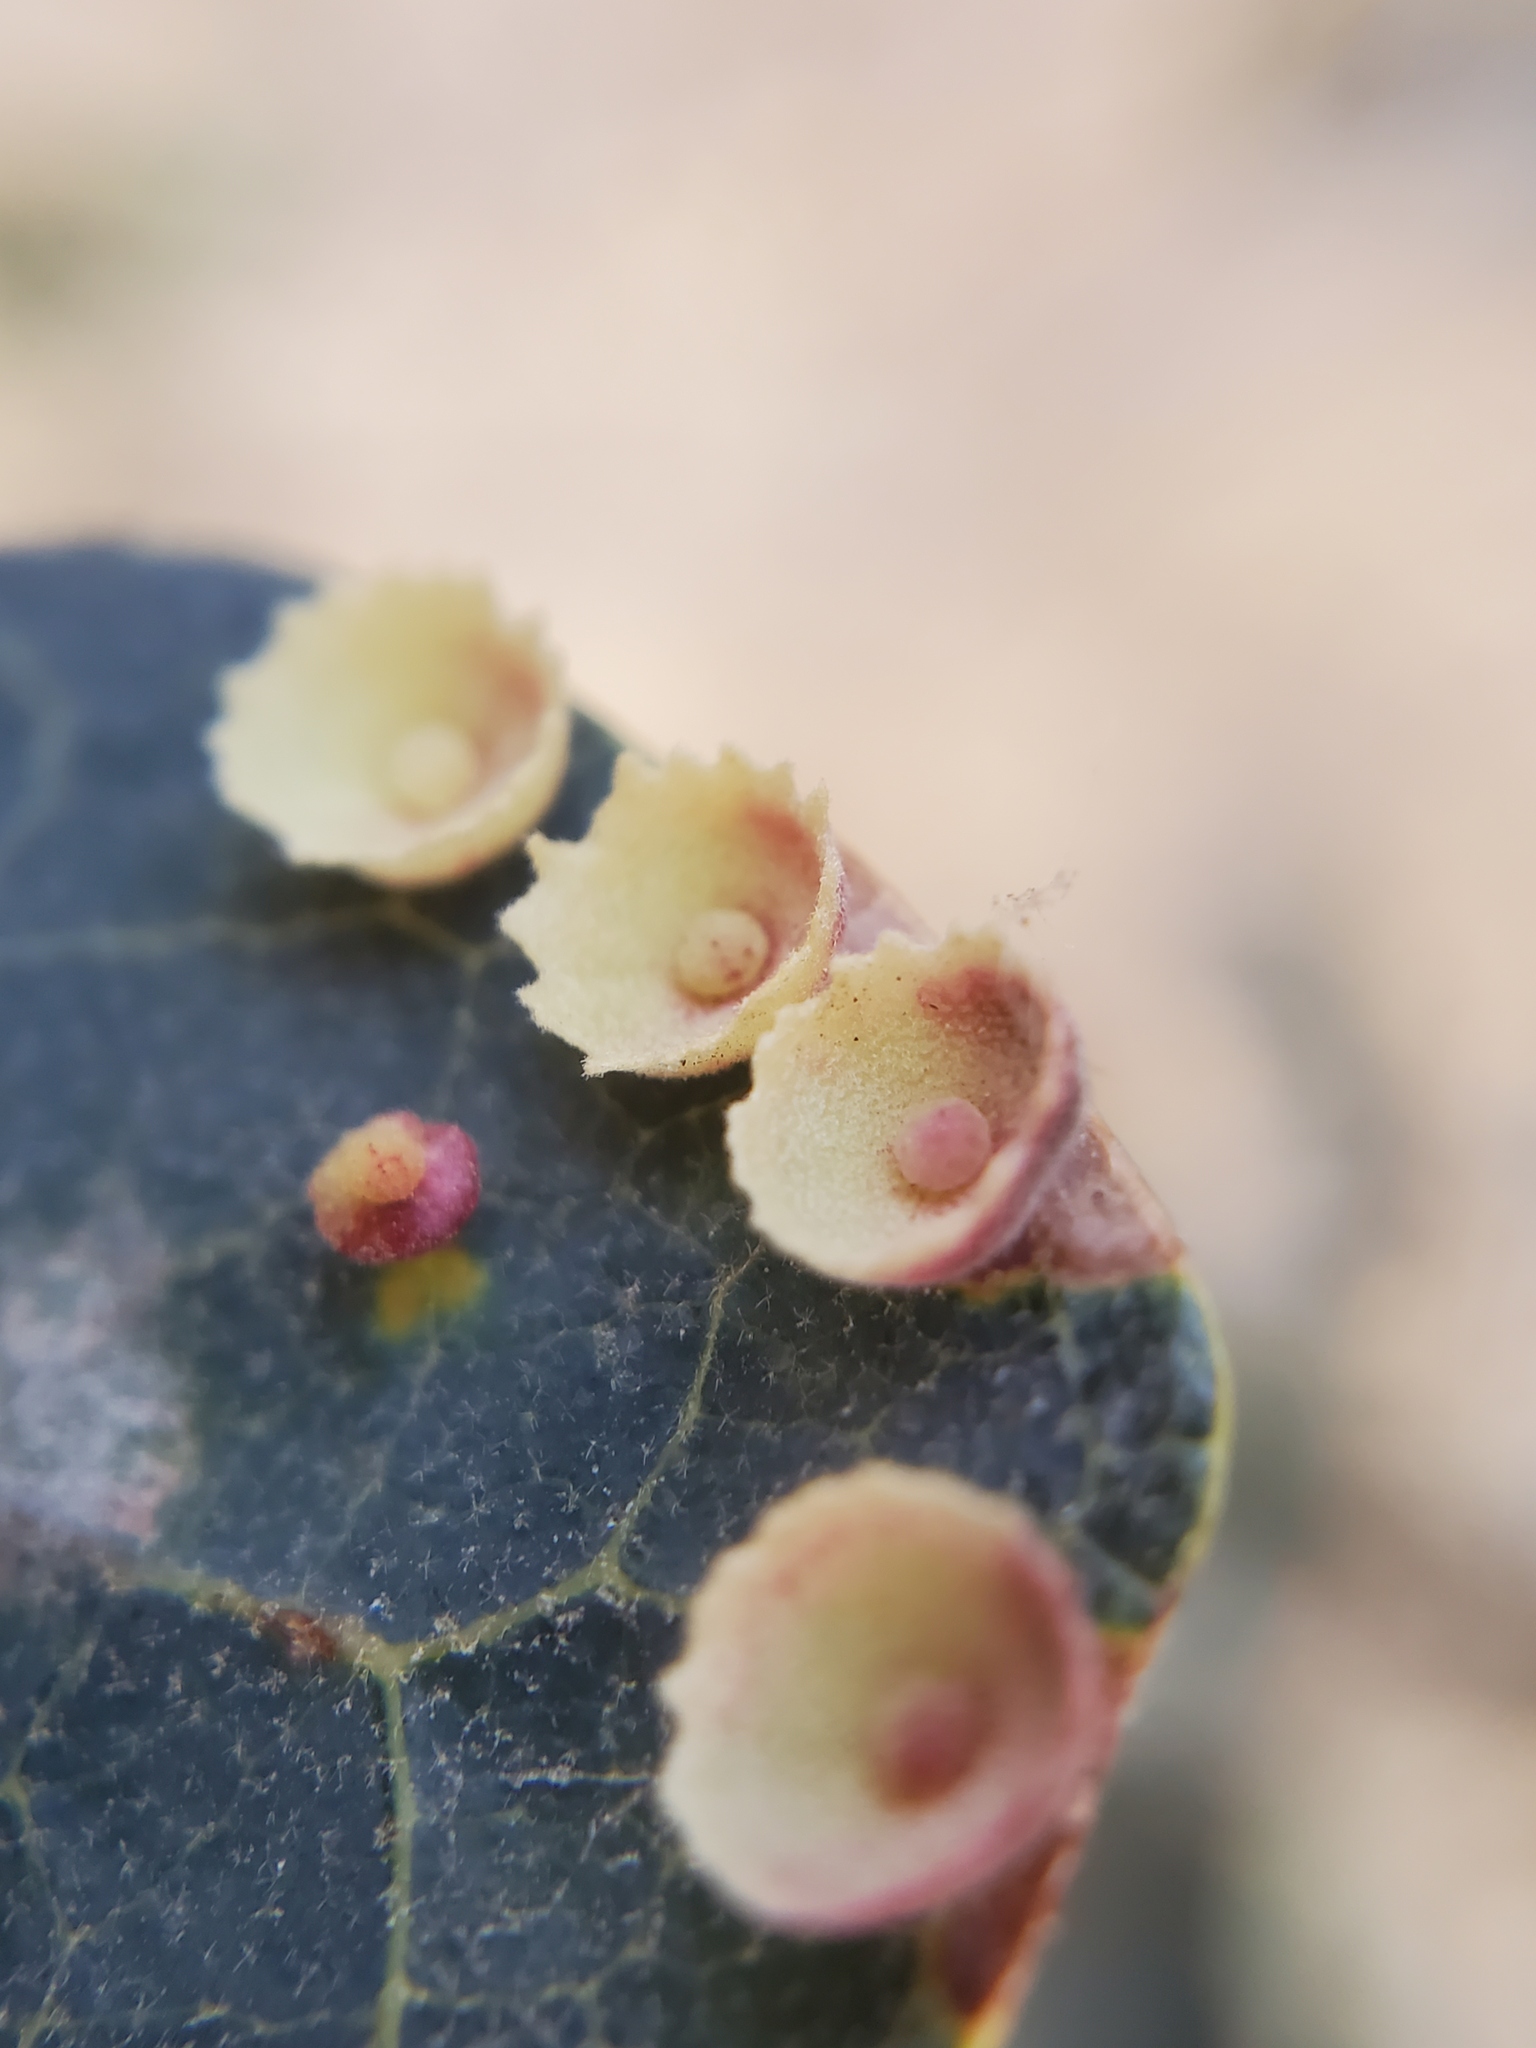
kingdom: Animalia
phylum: Arthropoda
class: Insecta
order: Hymenoptera
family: Cynipidae
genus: Andricus
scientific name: Andricus
